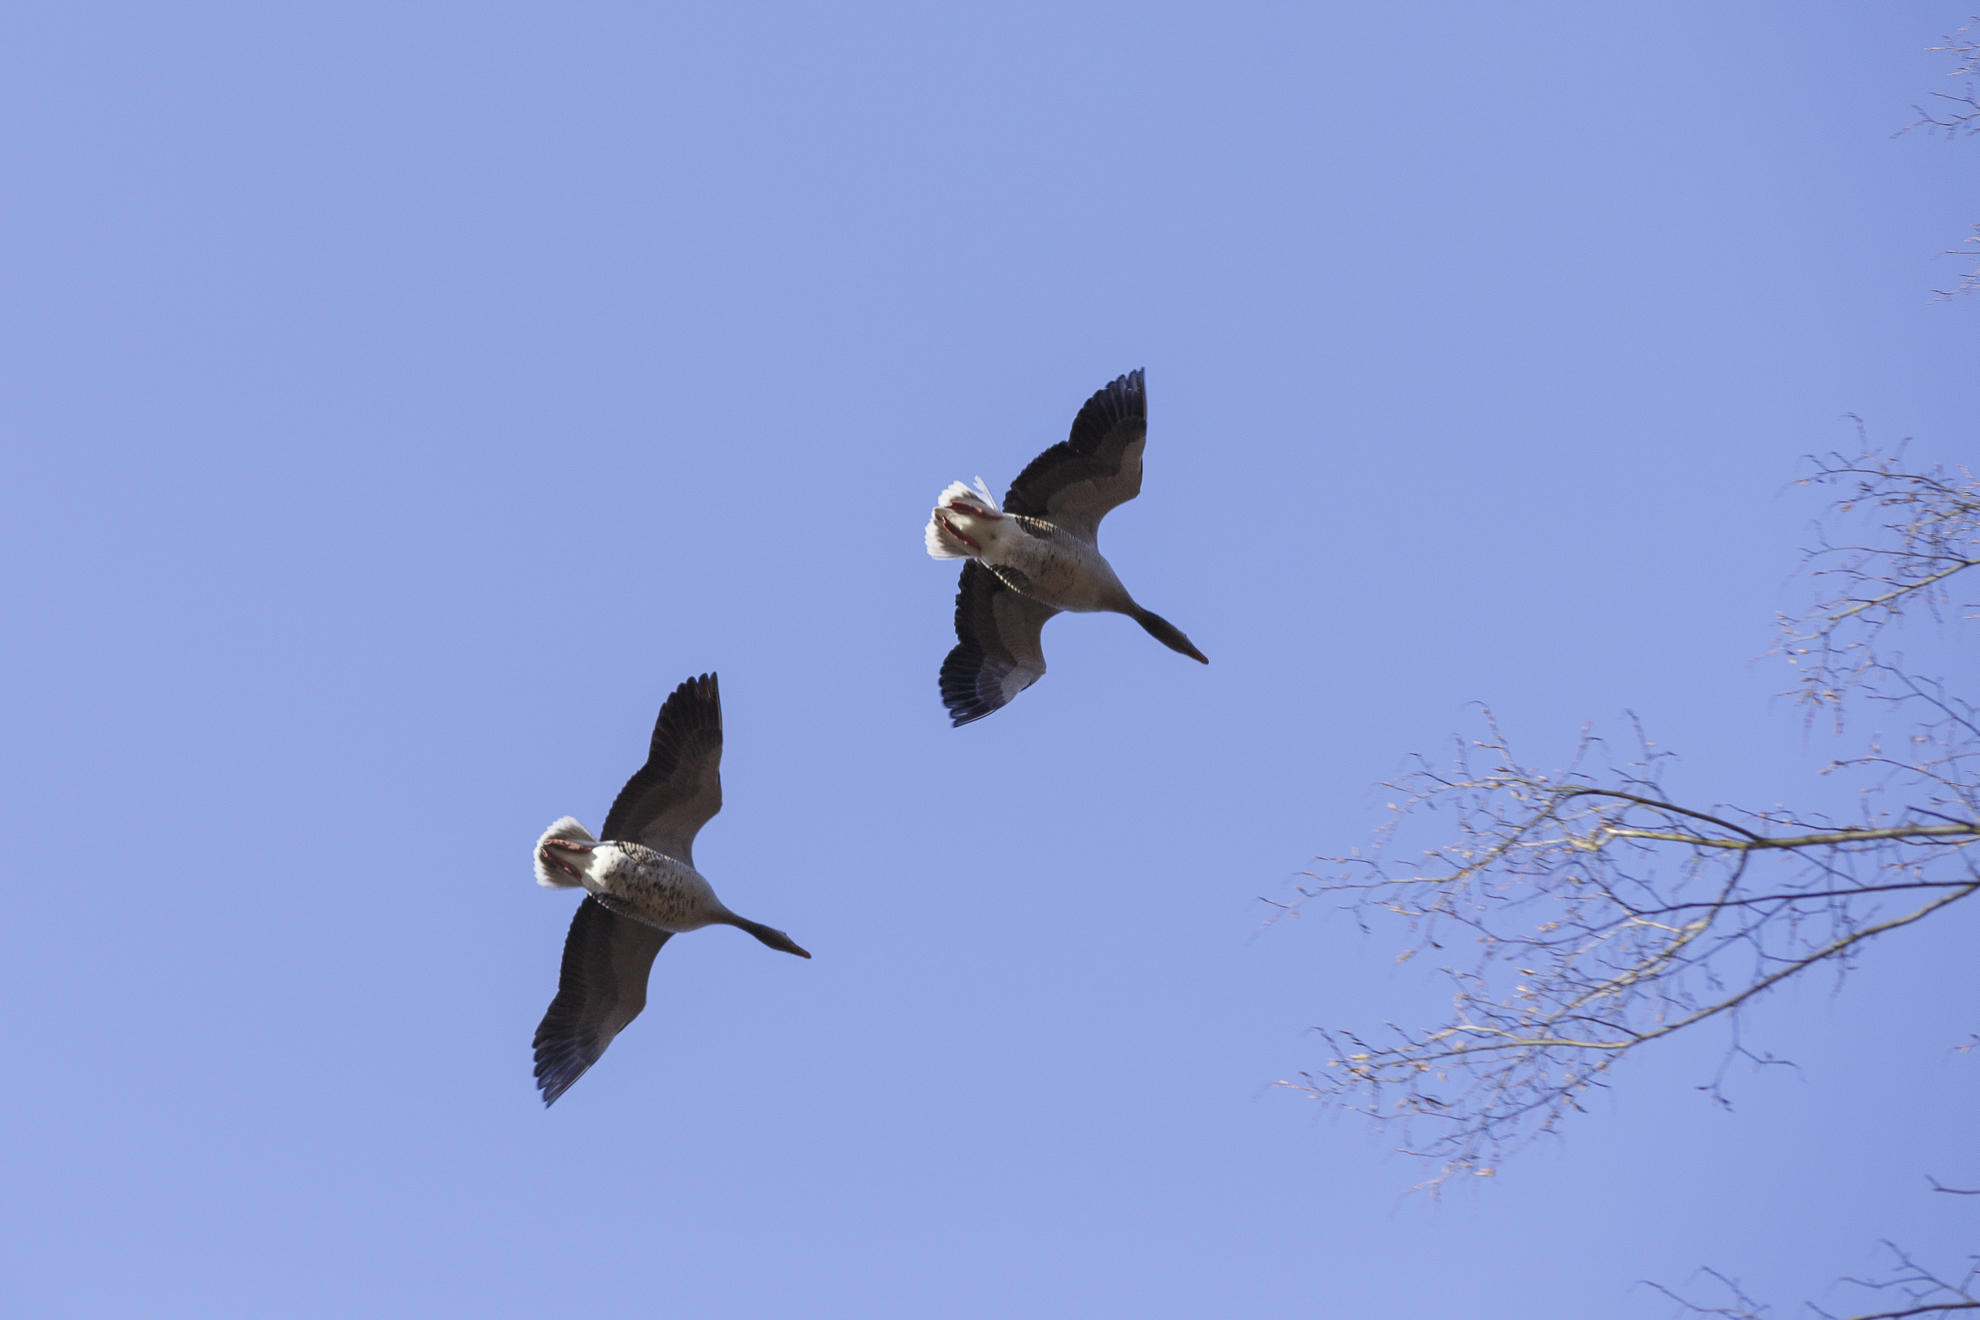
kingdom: Animalia
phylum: Chordata
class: Aves
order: Anseriformes
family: Anatidae
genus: Anser
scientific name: Anser anser
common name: Greylag goose
